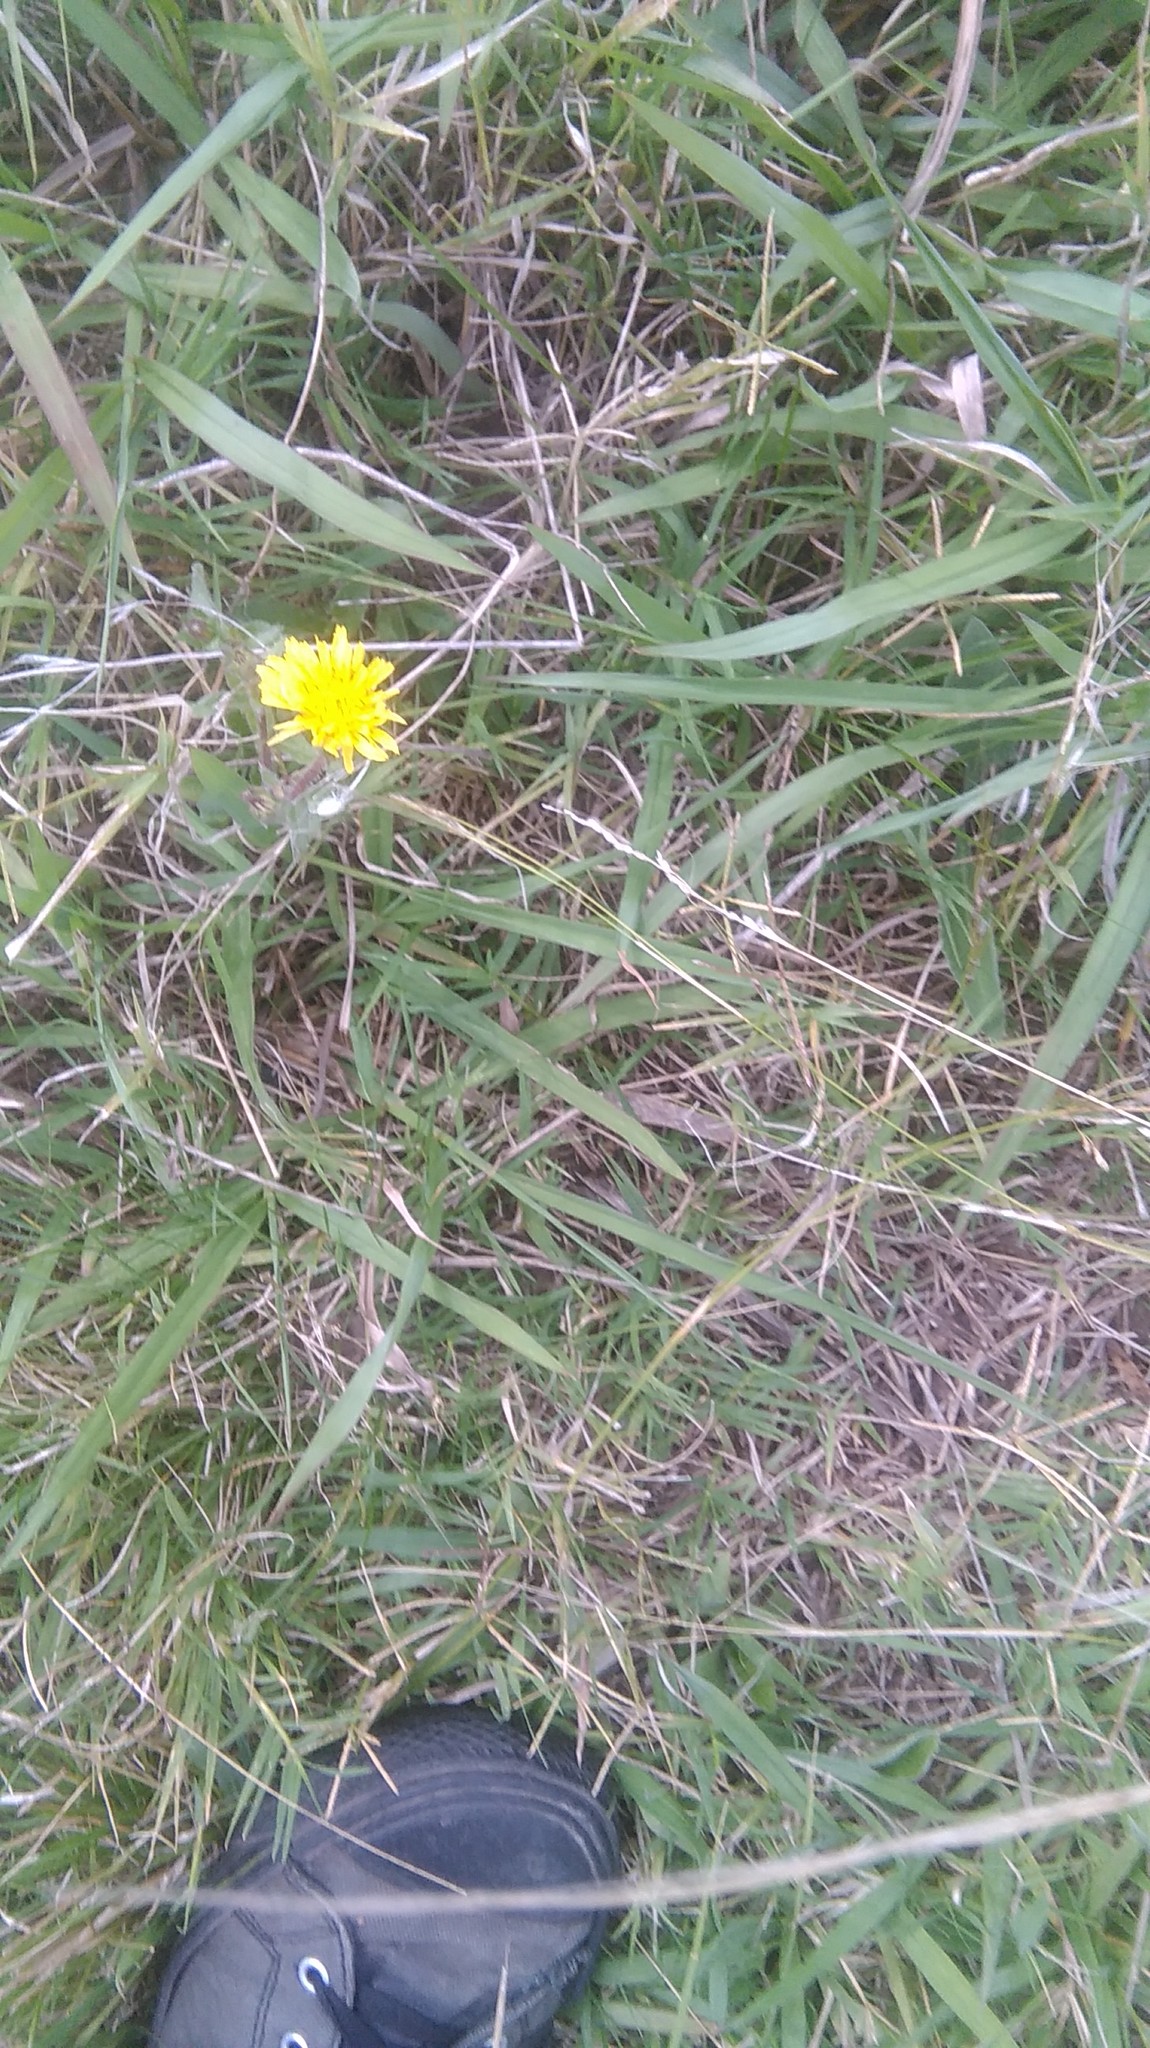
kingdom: Plantae
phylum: Tracheophyta
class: Magnoliopsida
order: Asterales
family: Asteraceae
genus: Helminthotheca
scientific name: Helminthotheca echioides
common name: Ox-tongue
